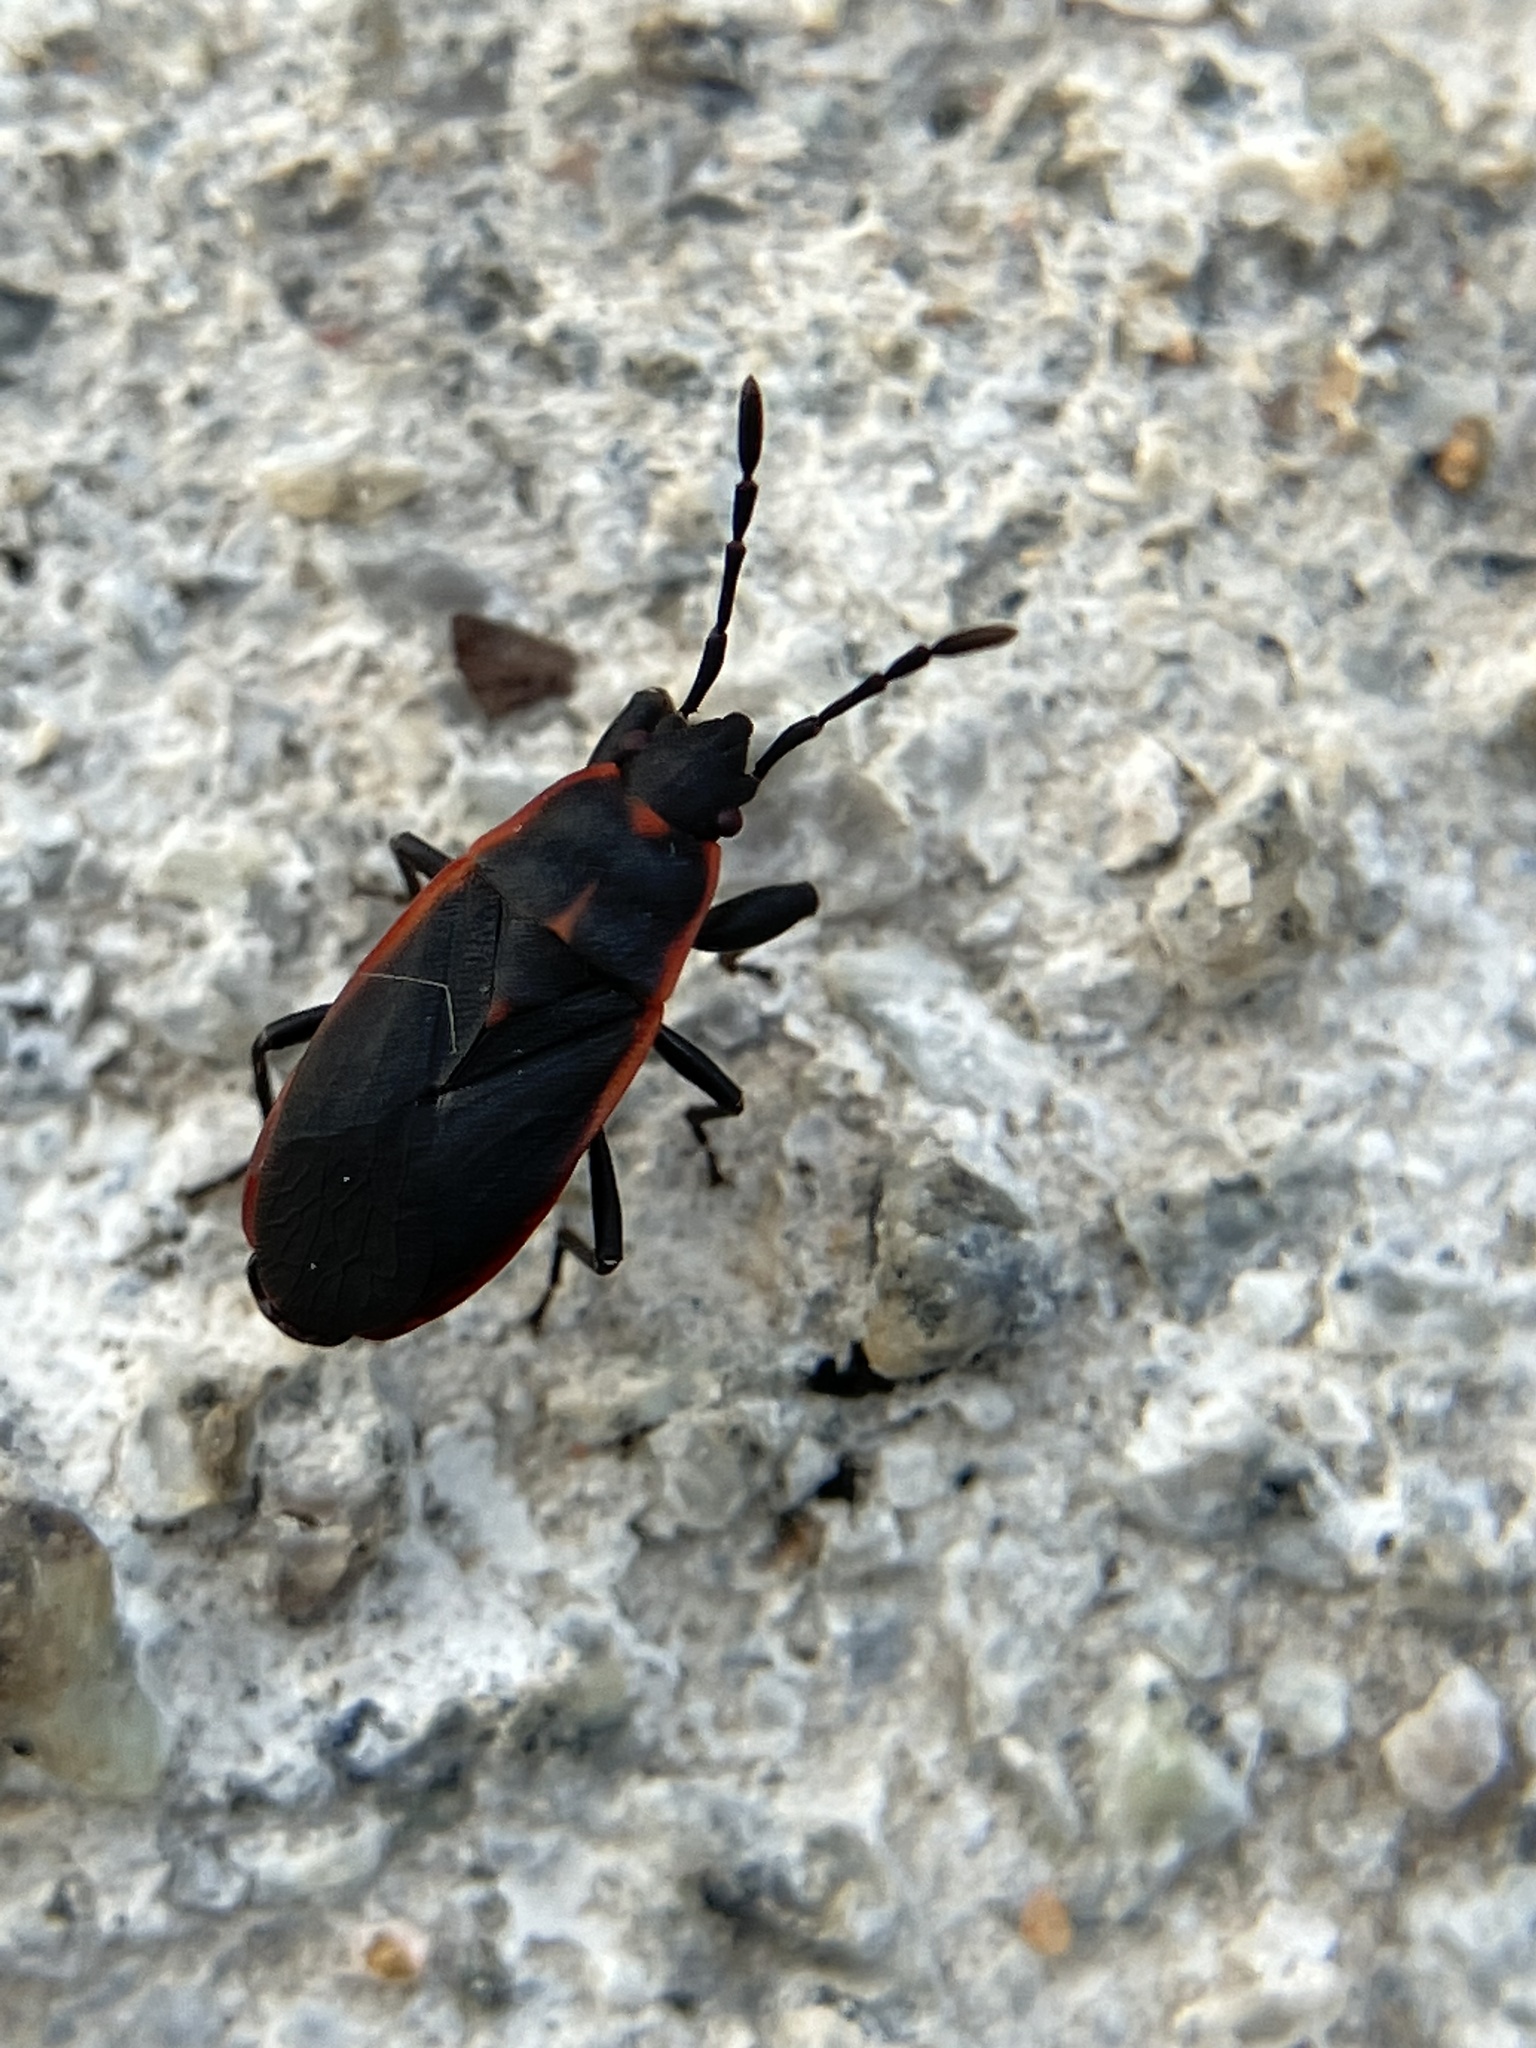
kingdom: Animalia
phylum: Arthropoda
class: Insecta
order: Hemiptera
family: Pyrrhocoridae
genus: Scantius
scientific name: Scantius forsteri
